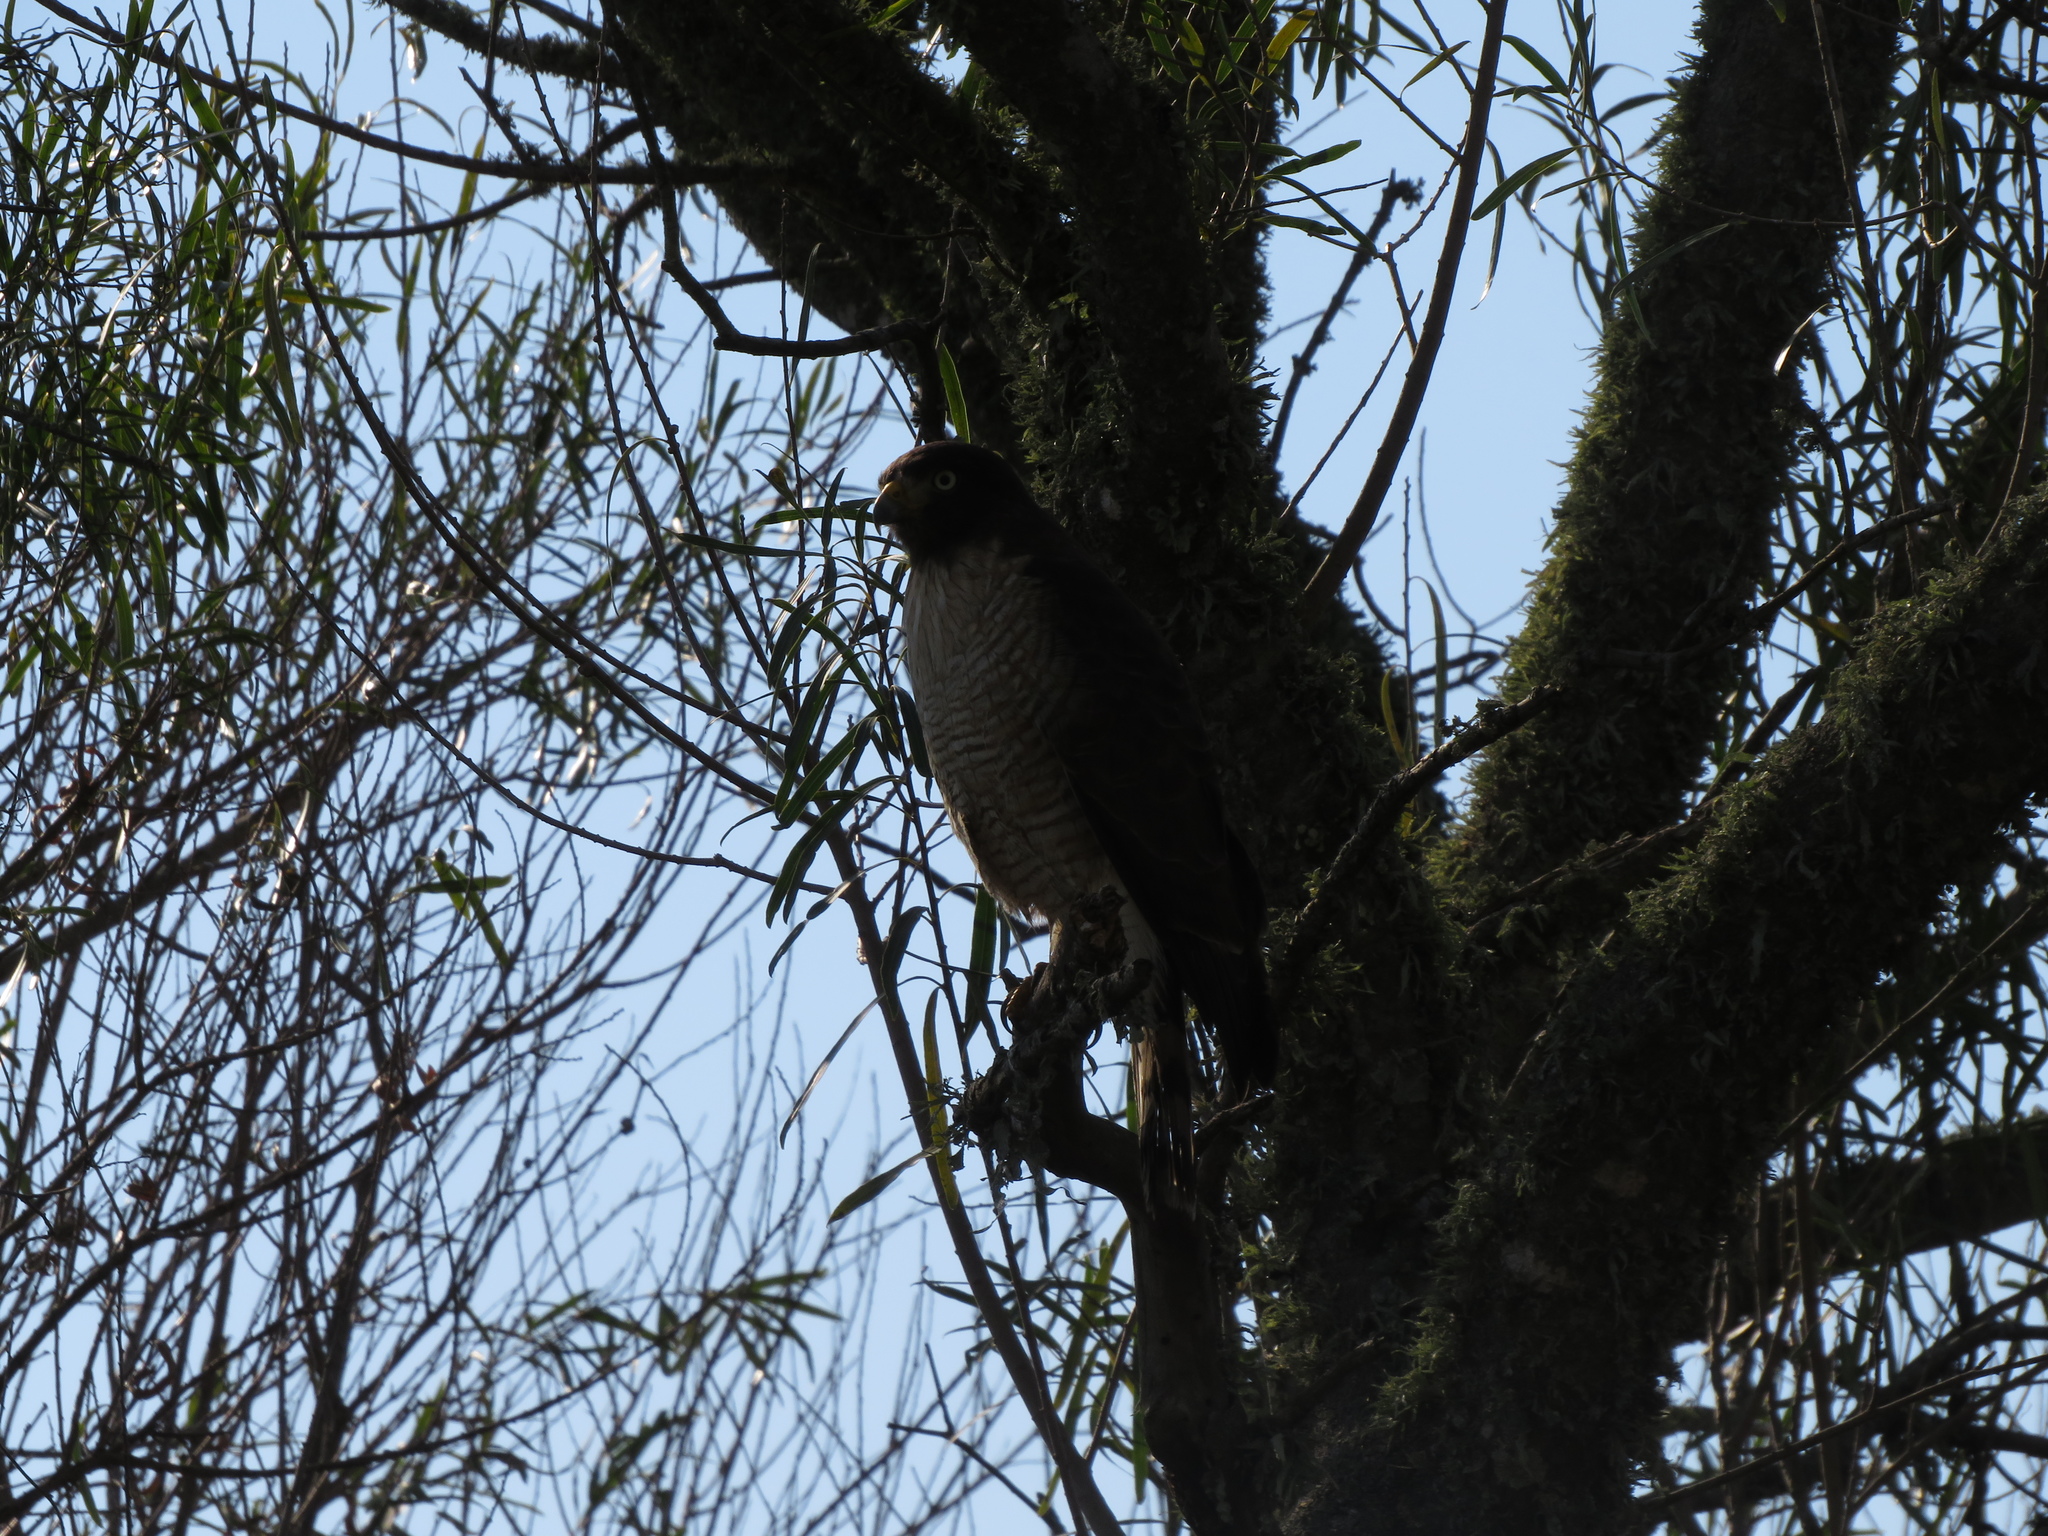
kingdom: Animalia
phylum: Chordata
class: Aves
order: Accipitriformes
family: Accipitridae
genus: Rupornis
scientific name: Rupornis magnirostris
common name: Roadside hawk
